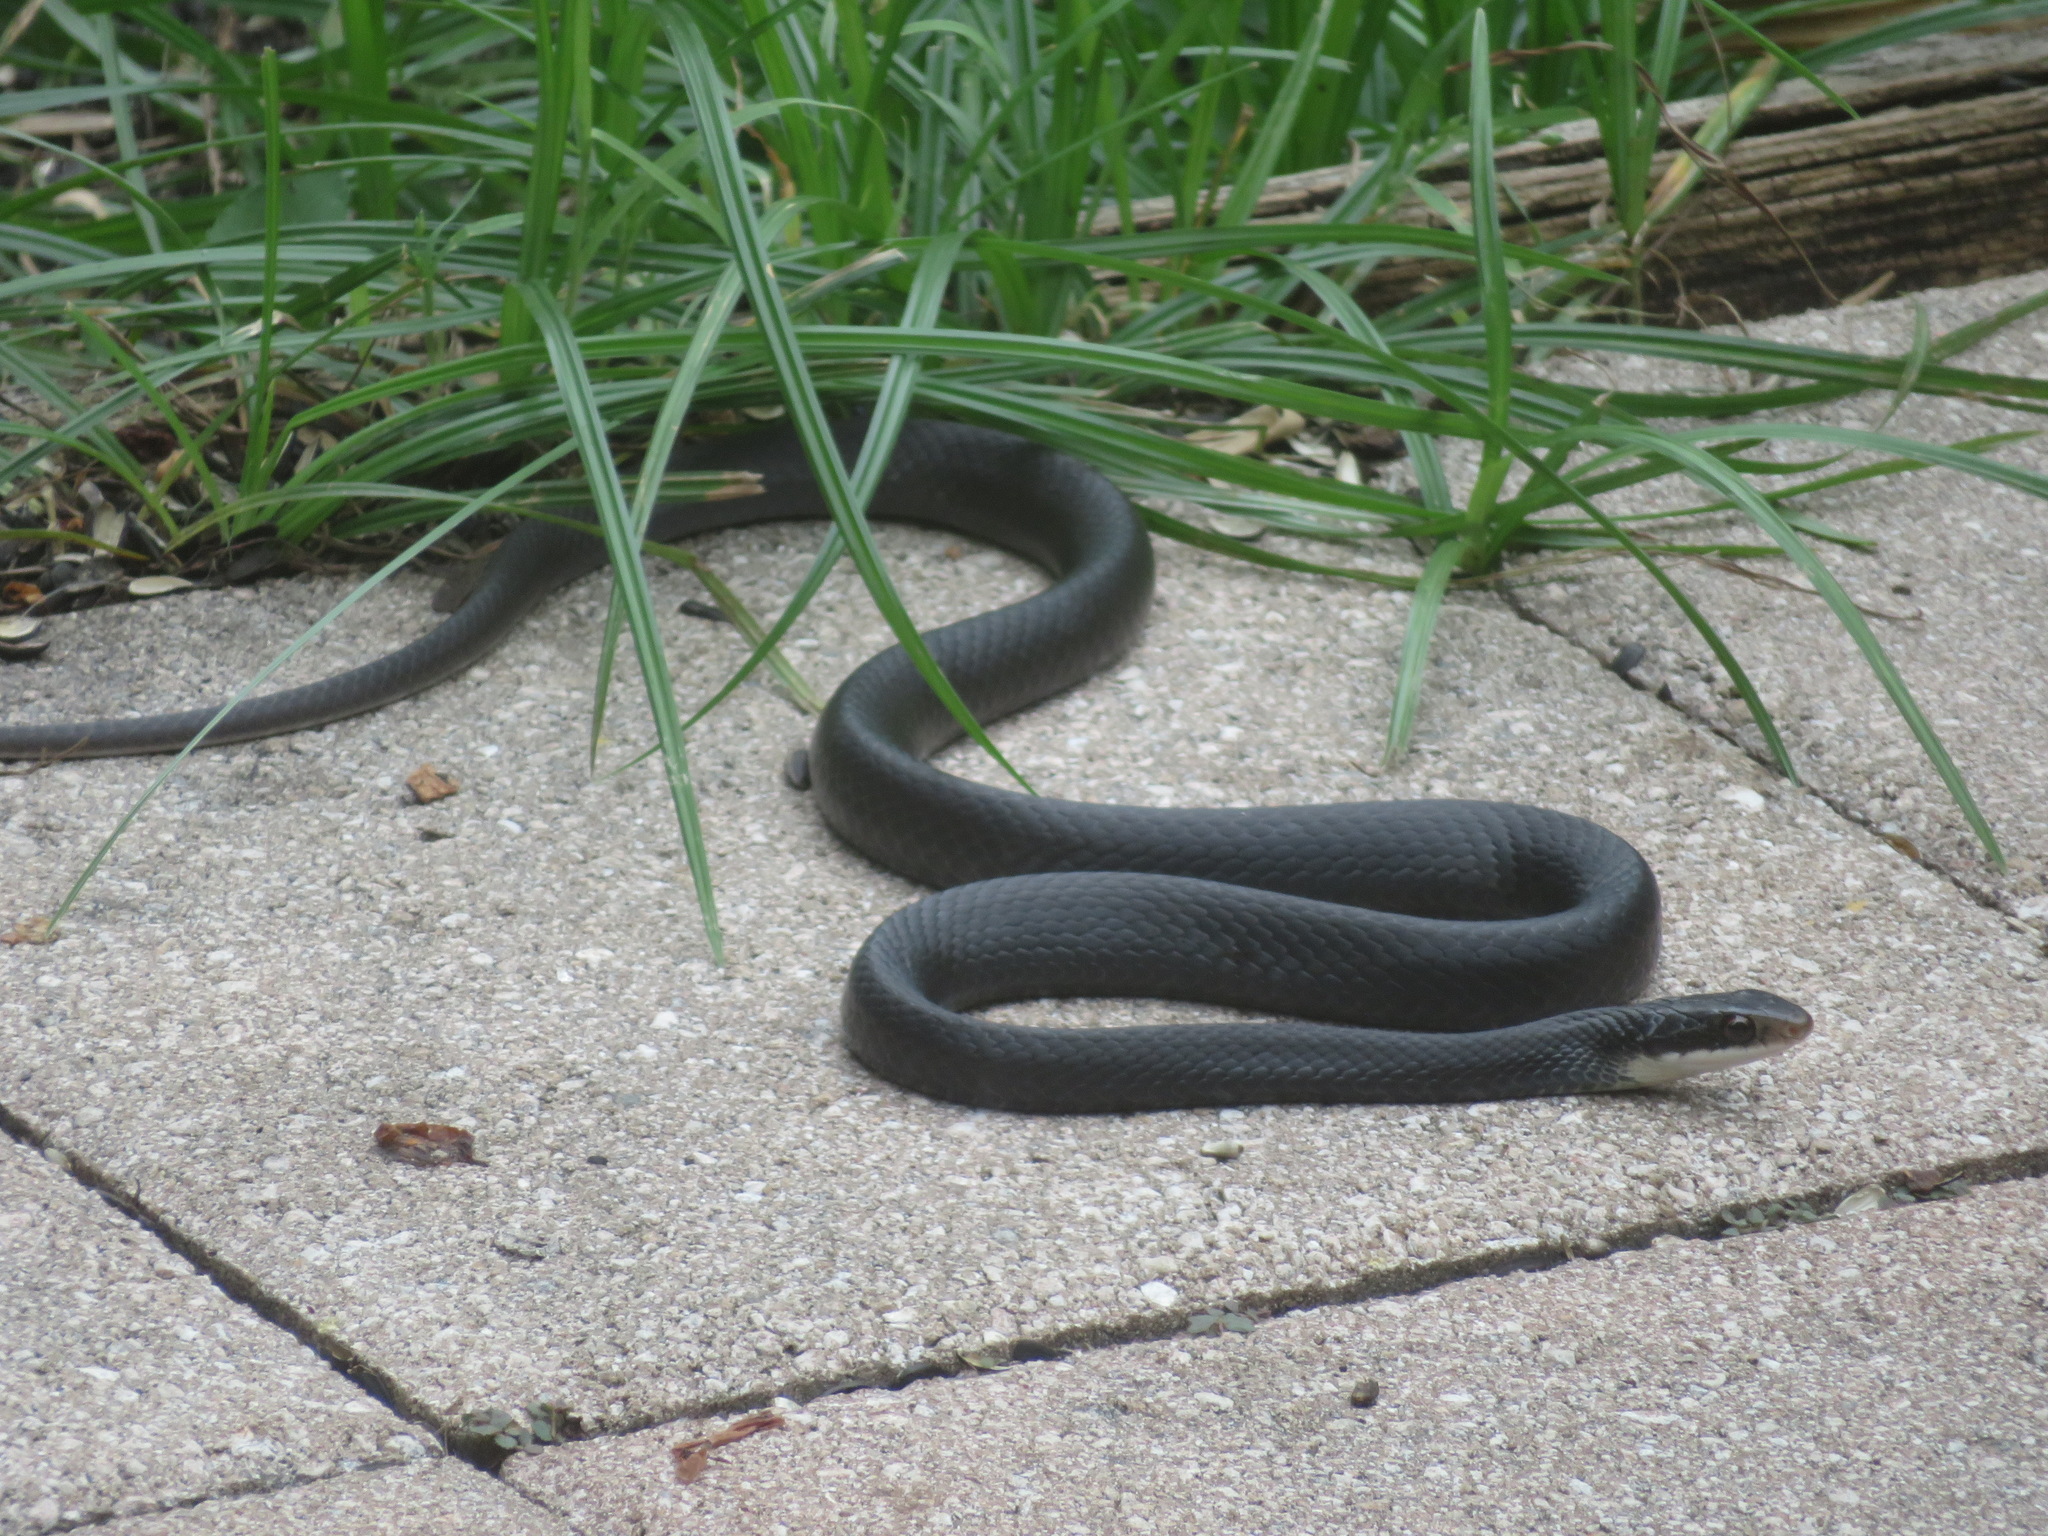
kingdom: Animalia
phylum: Chordata
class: Squamata
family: Colubridae
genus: Coluber
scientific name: Coluber constrictor
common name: Eastern racer
